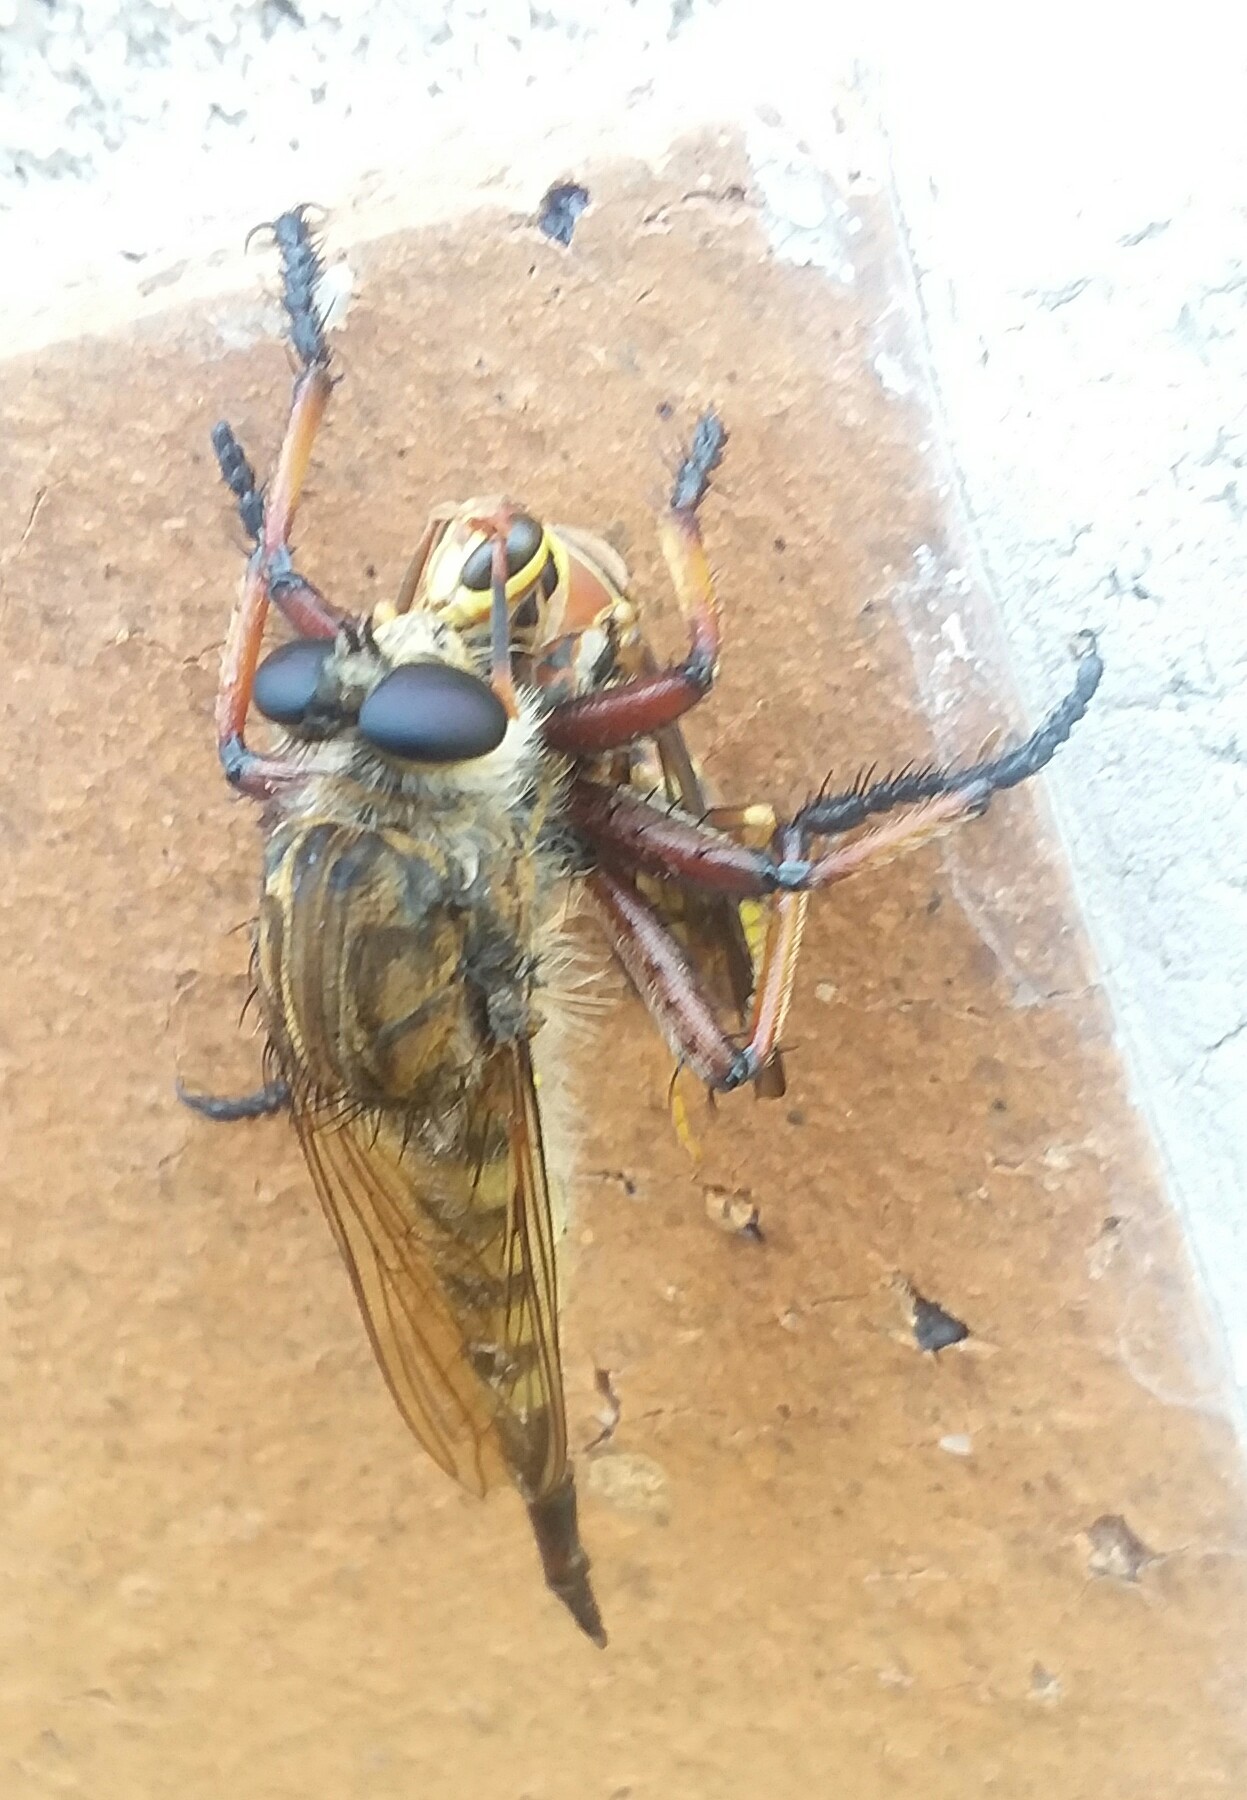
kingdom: Animalia
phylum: Arthropoda
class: Insecta
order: Diptera
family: Asilidae
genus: Promachus
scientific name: Promachus hinei
